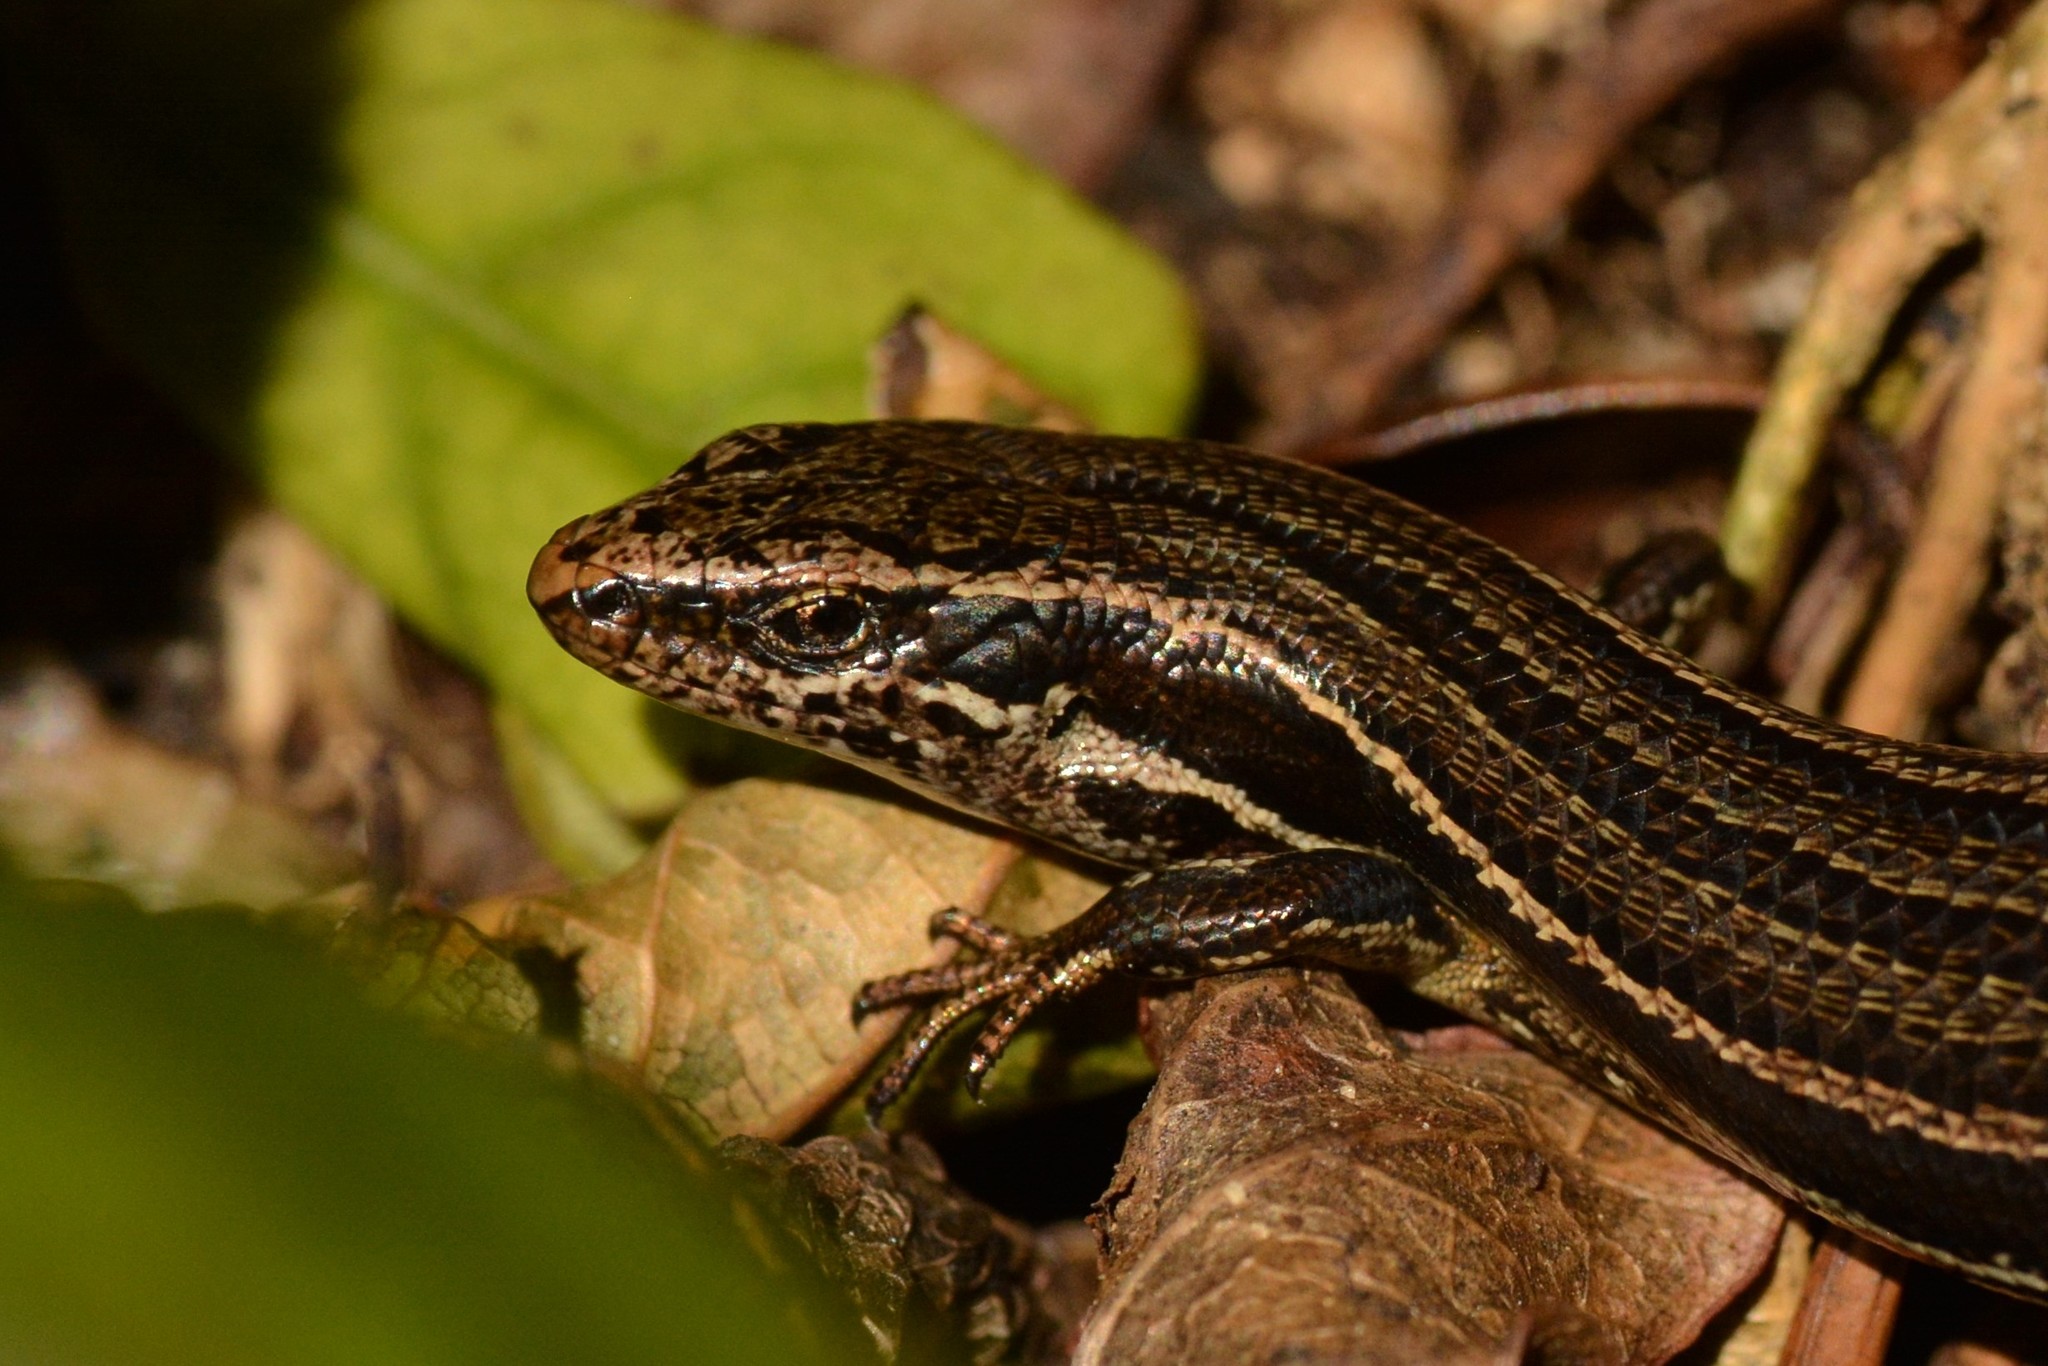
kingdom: Animalia
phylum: Chordata
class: Squamata
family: Scincidae
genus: Oligosoma
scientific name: Oligosoma polychroma
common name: Common new zealand skink
